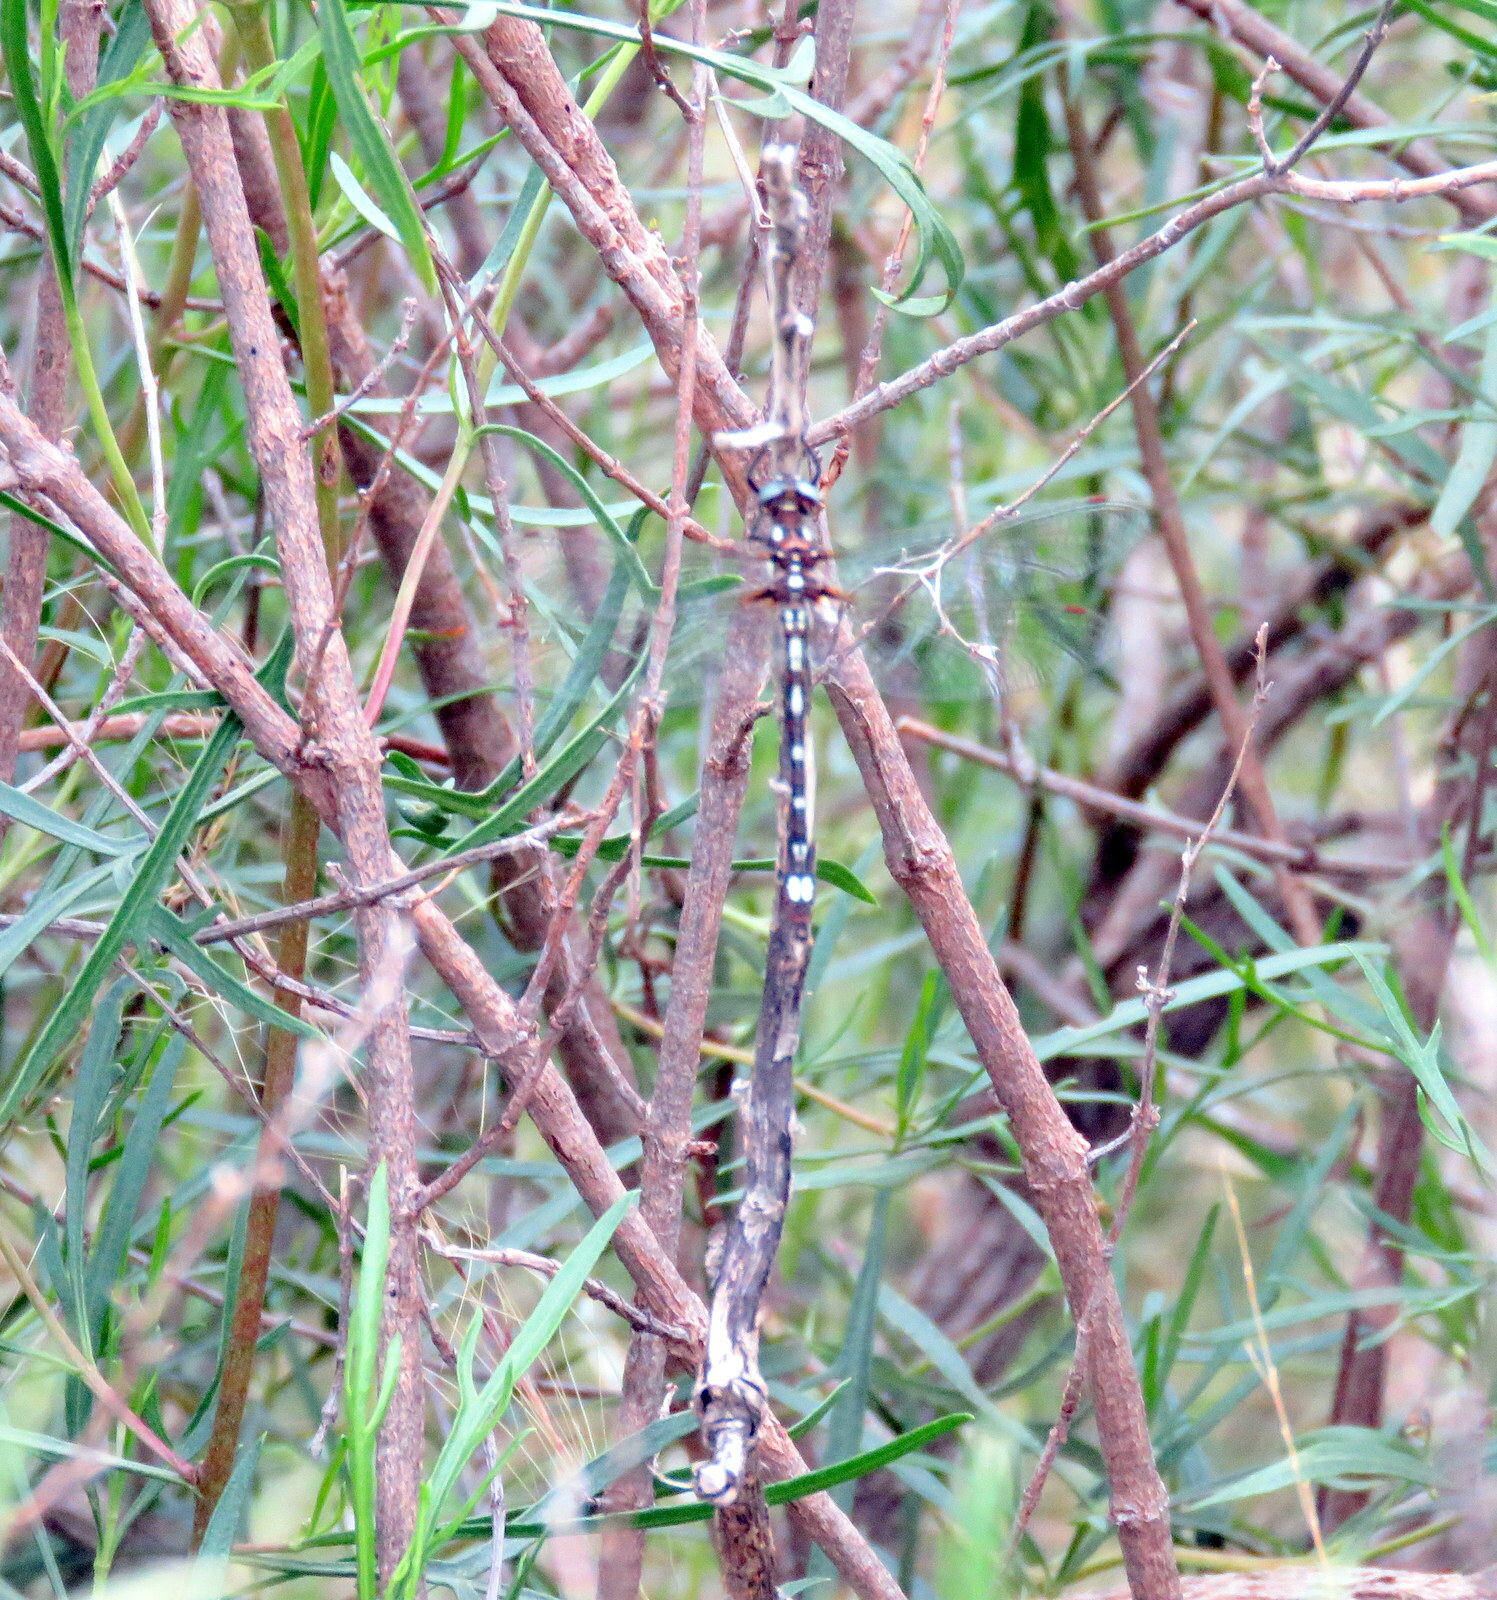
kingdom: Animalia
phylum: Arthropoda
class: Insecta
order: Odonata
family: Synthemistidae
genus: Gomphomacromia
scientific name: Gomphomacromia nodisticta
